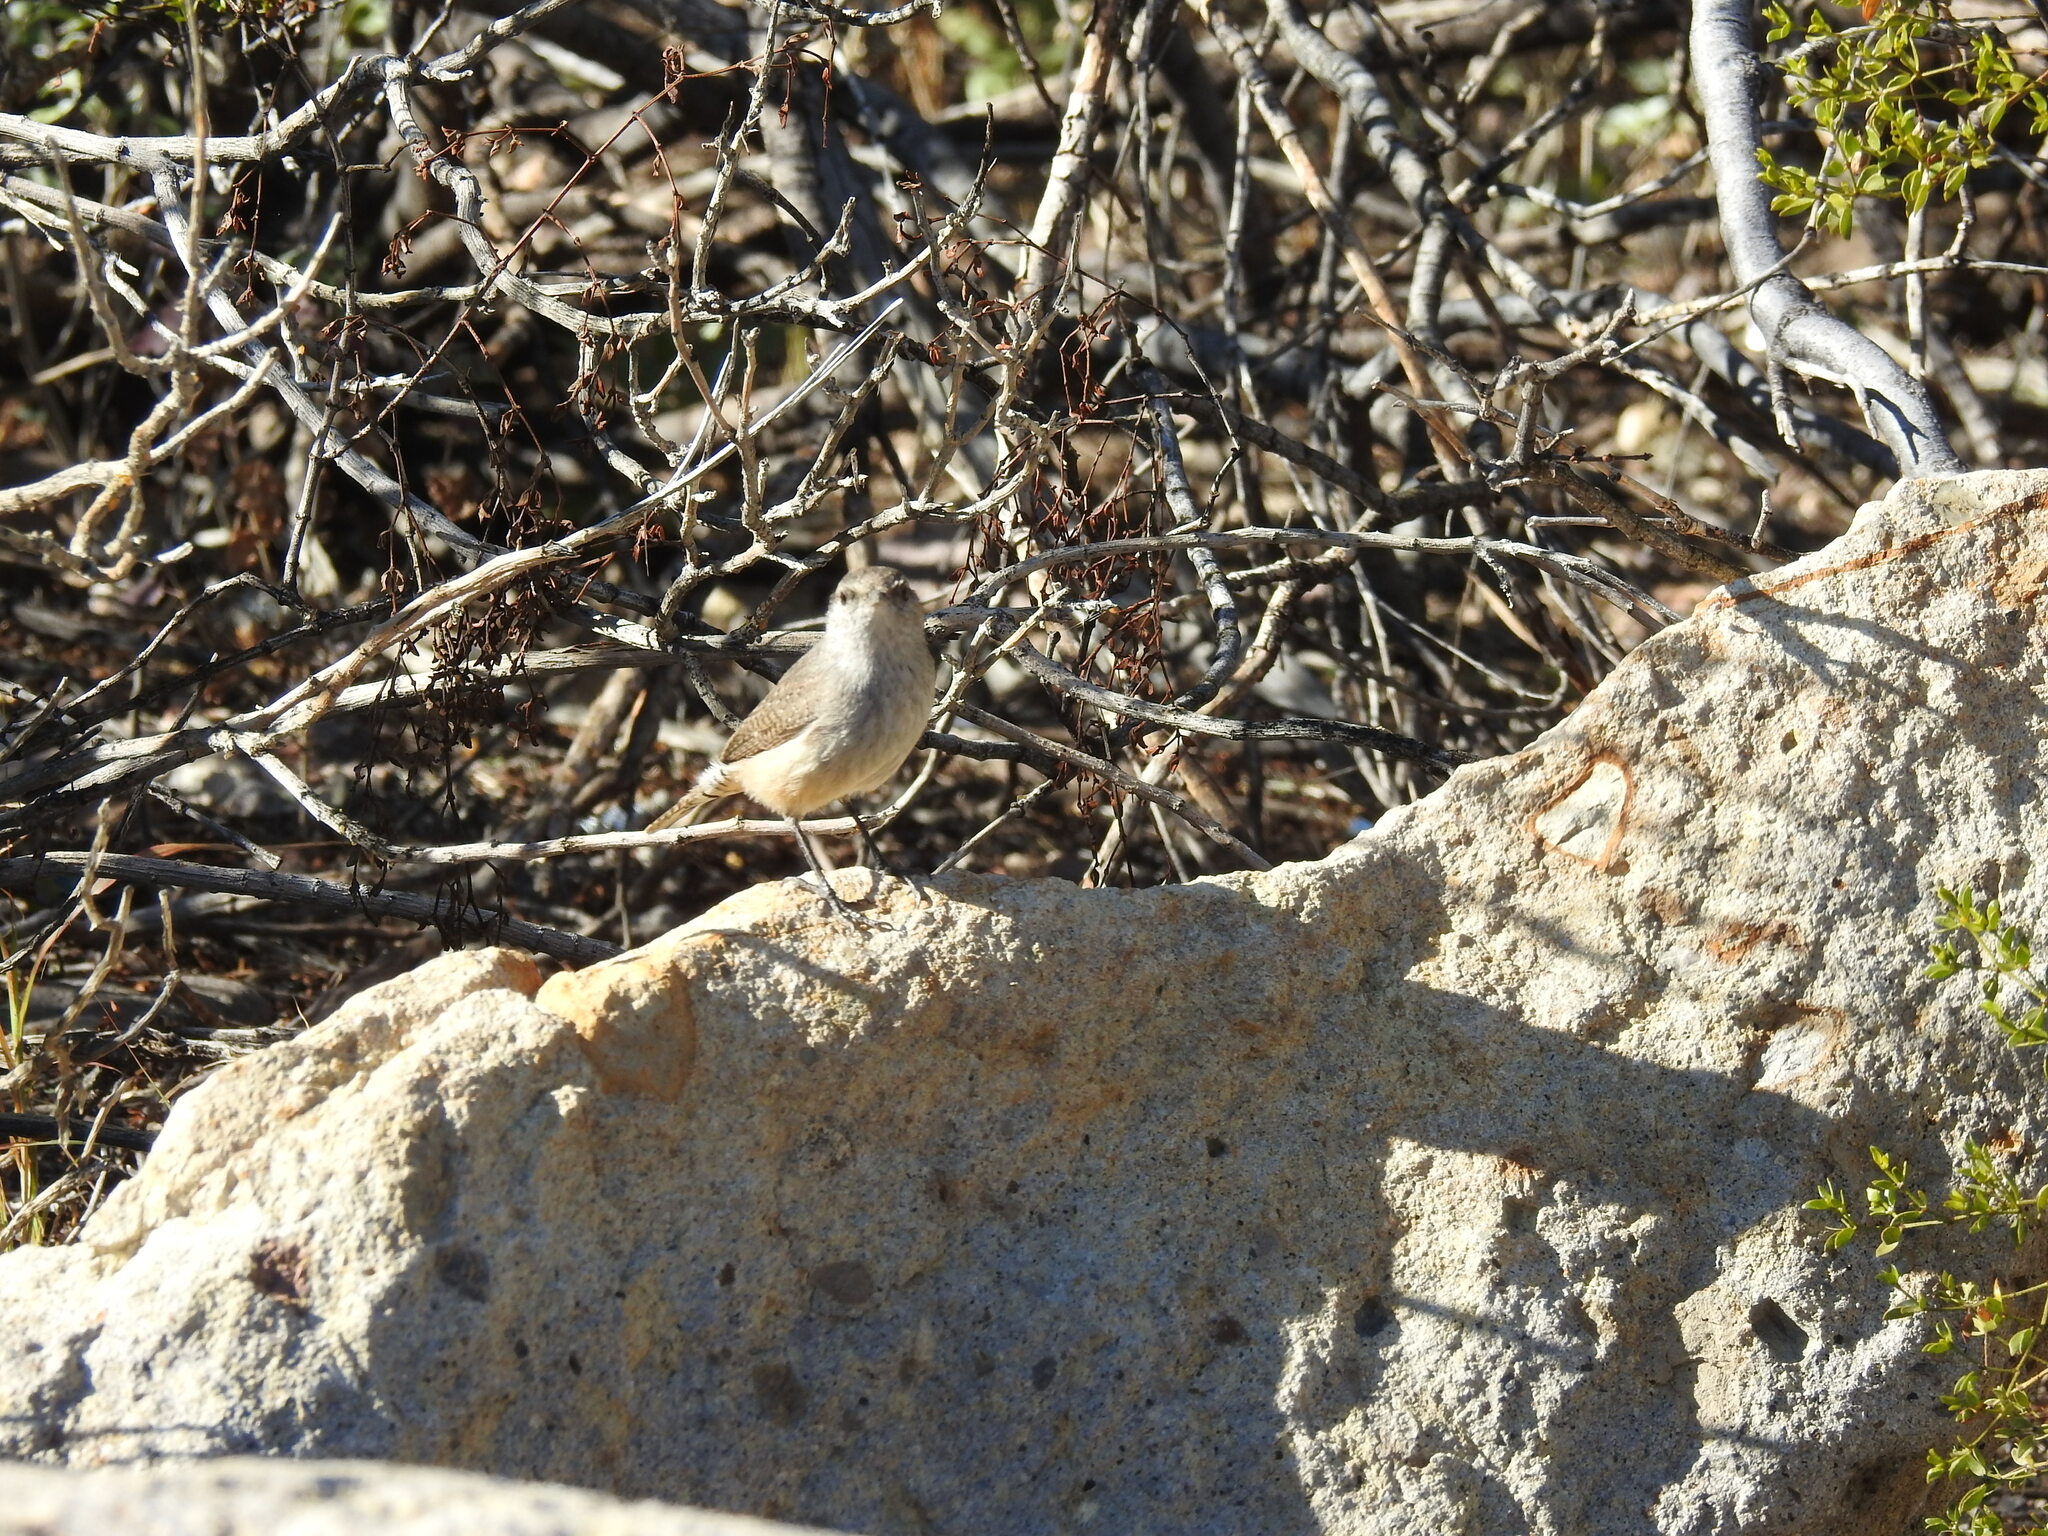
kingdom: Animalia
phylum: Chordata
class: Aves
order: Passeriformes
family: Troglodytidae
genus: Salpinctes
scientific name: Salpinctes obsoletus
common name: Rock wren
